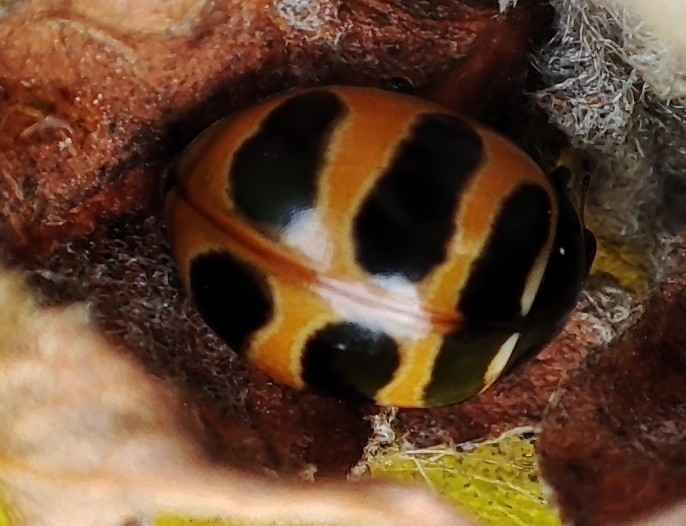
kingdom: Animalia
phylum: Arthropoda
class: Insecta
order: Coleoptera
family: Coccinellidae
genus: Coccinella
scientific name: Coccinella trifasciata
